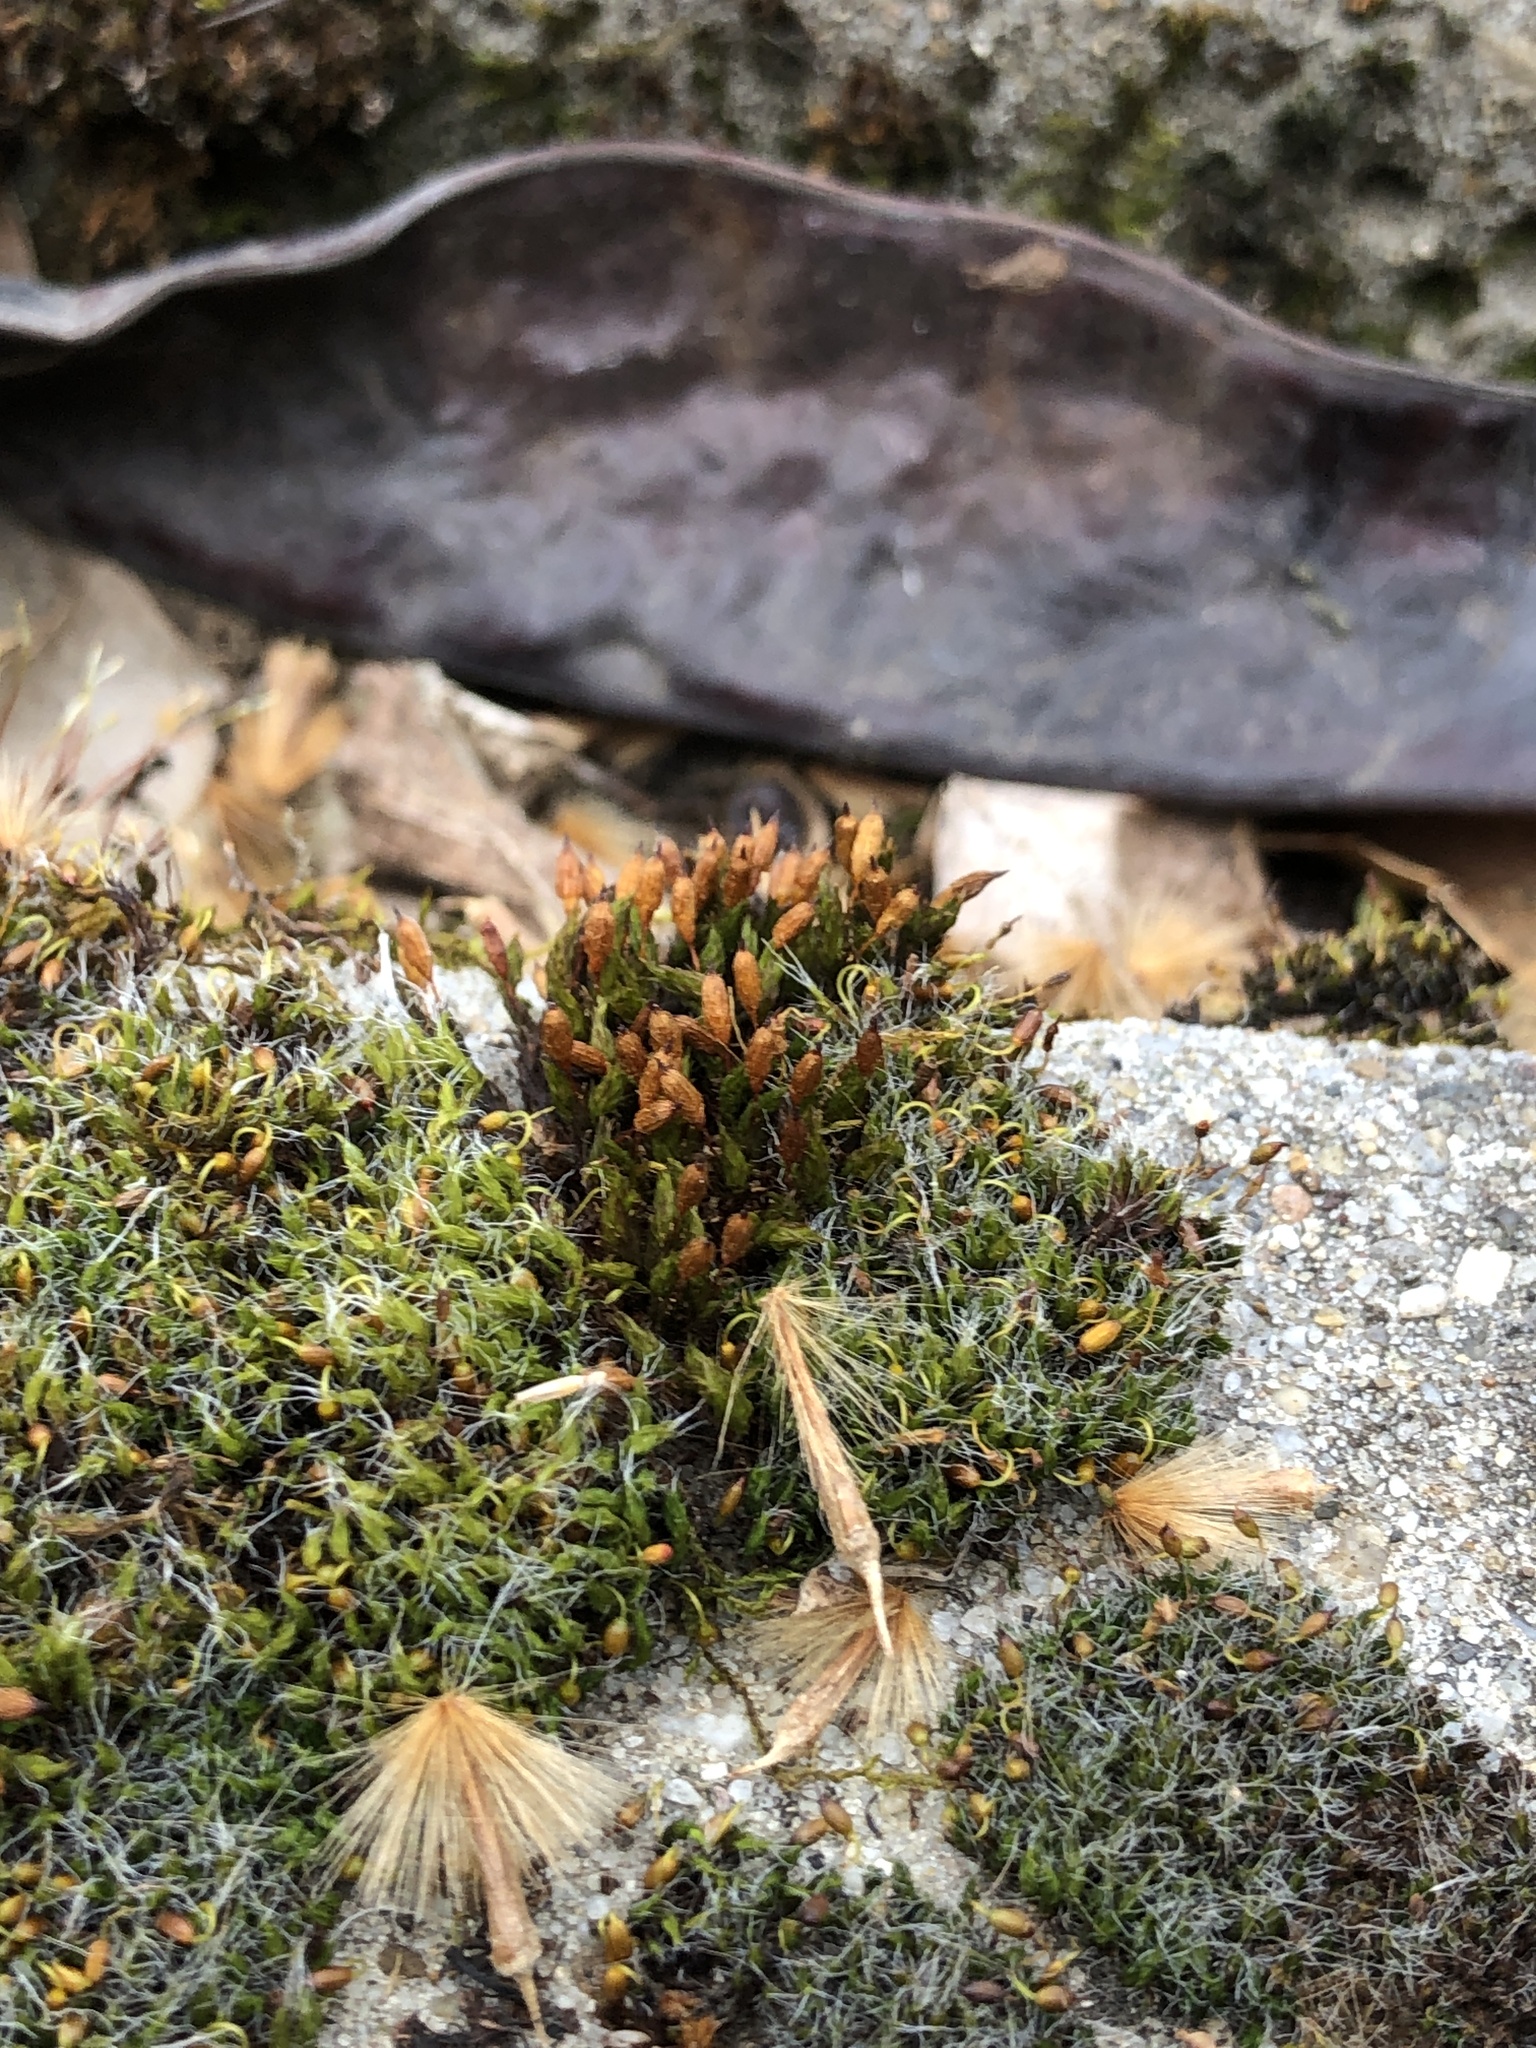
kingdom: Plantae
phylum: Bryophyta
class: Bryopsida
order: Orthotrichales
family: Orthotrichaceae
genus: Orthotrichum
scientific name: Orthotrichum anomalum
